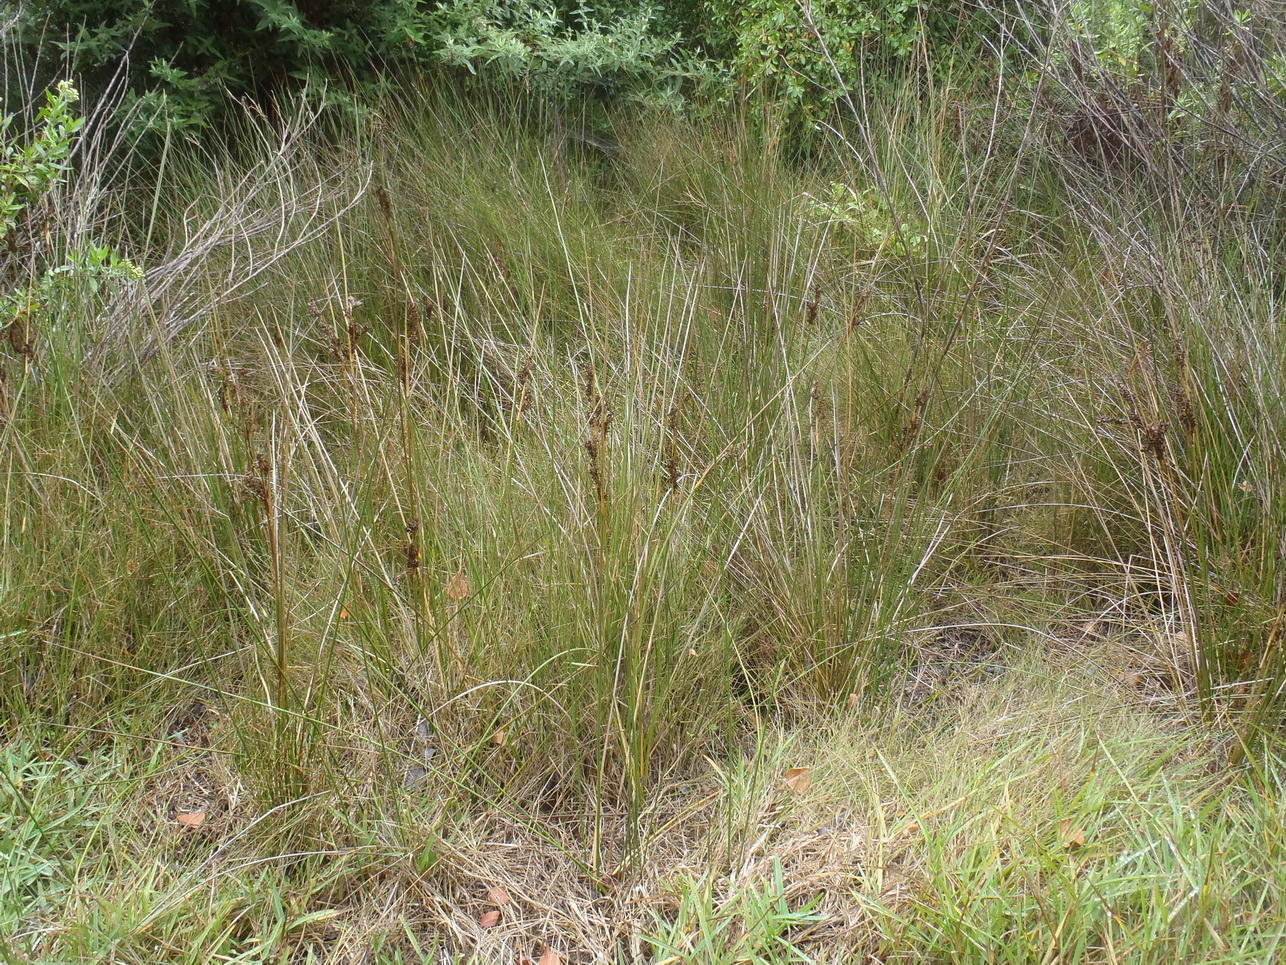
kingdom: Plantae
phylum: Tracheophyta
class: Liliopsida
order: Poales
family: Cyperaceae
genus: Cladium
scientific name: Cladium mariscus
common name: Great fen-sedge
